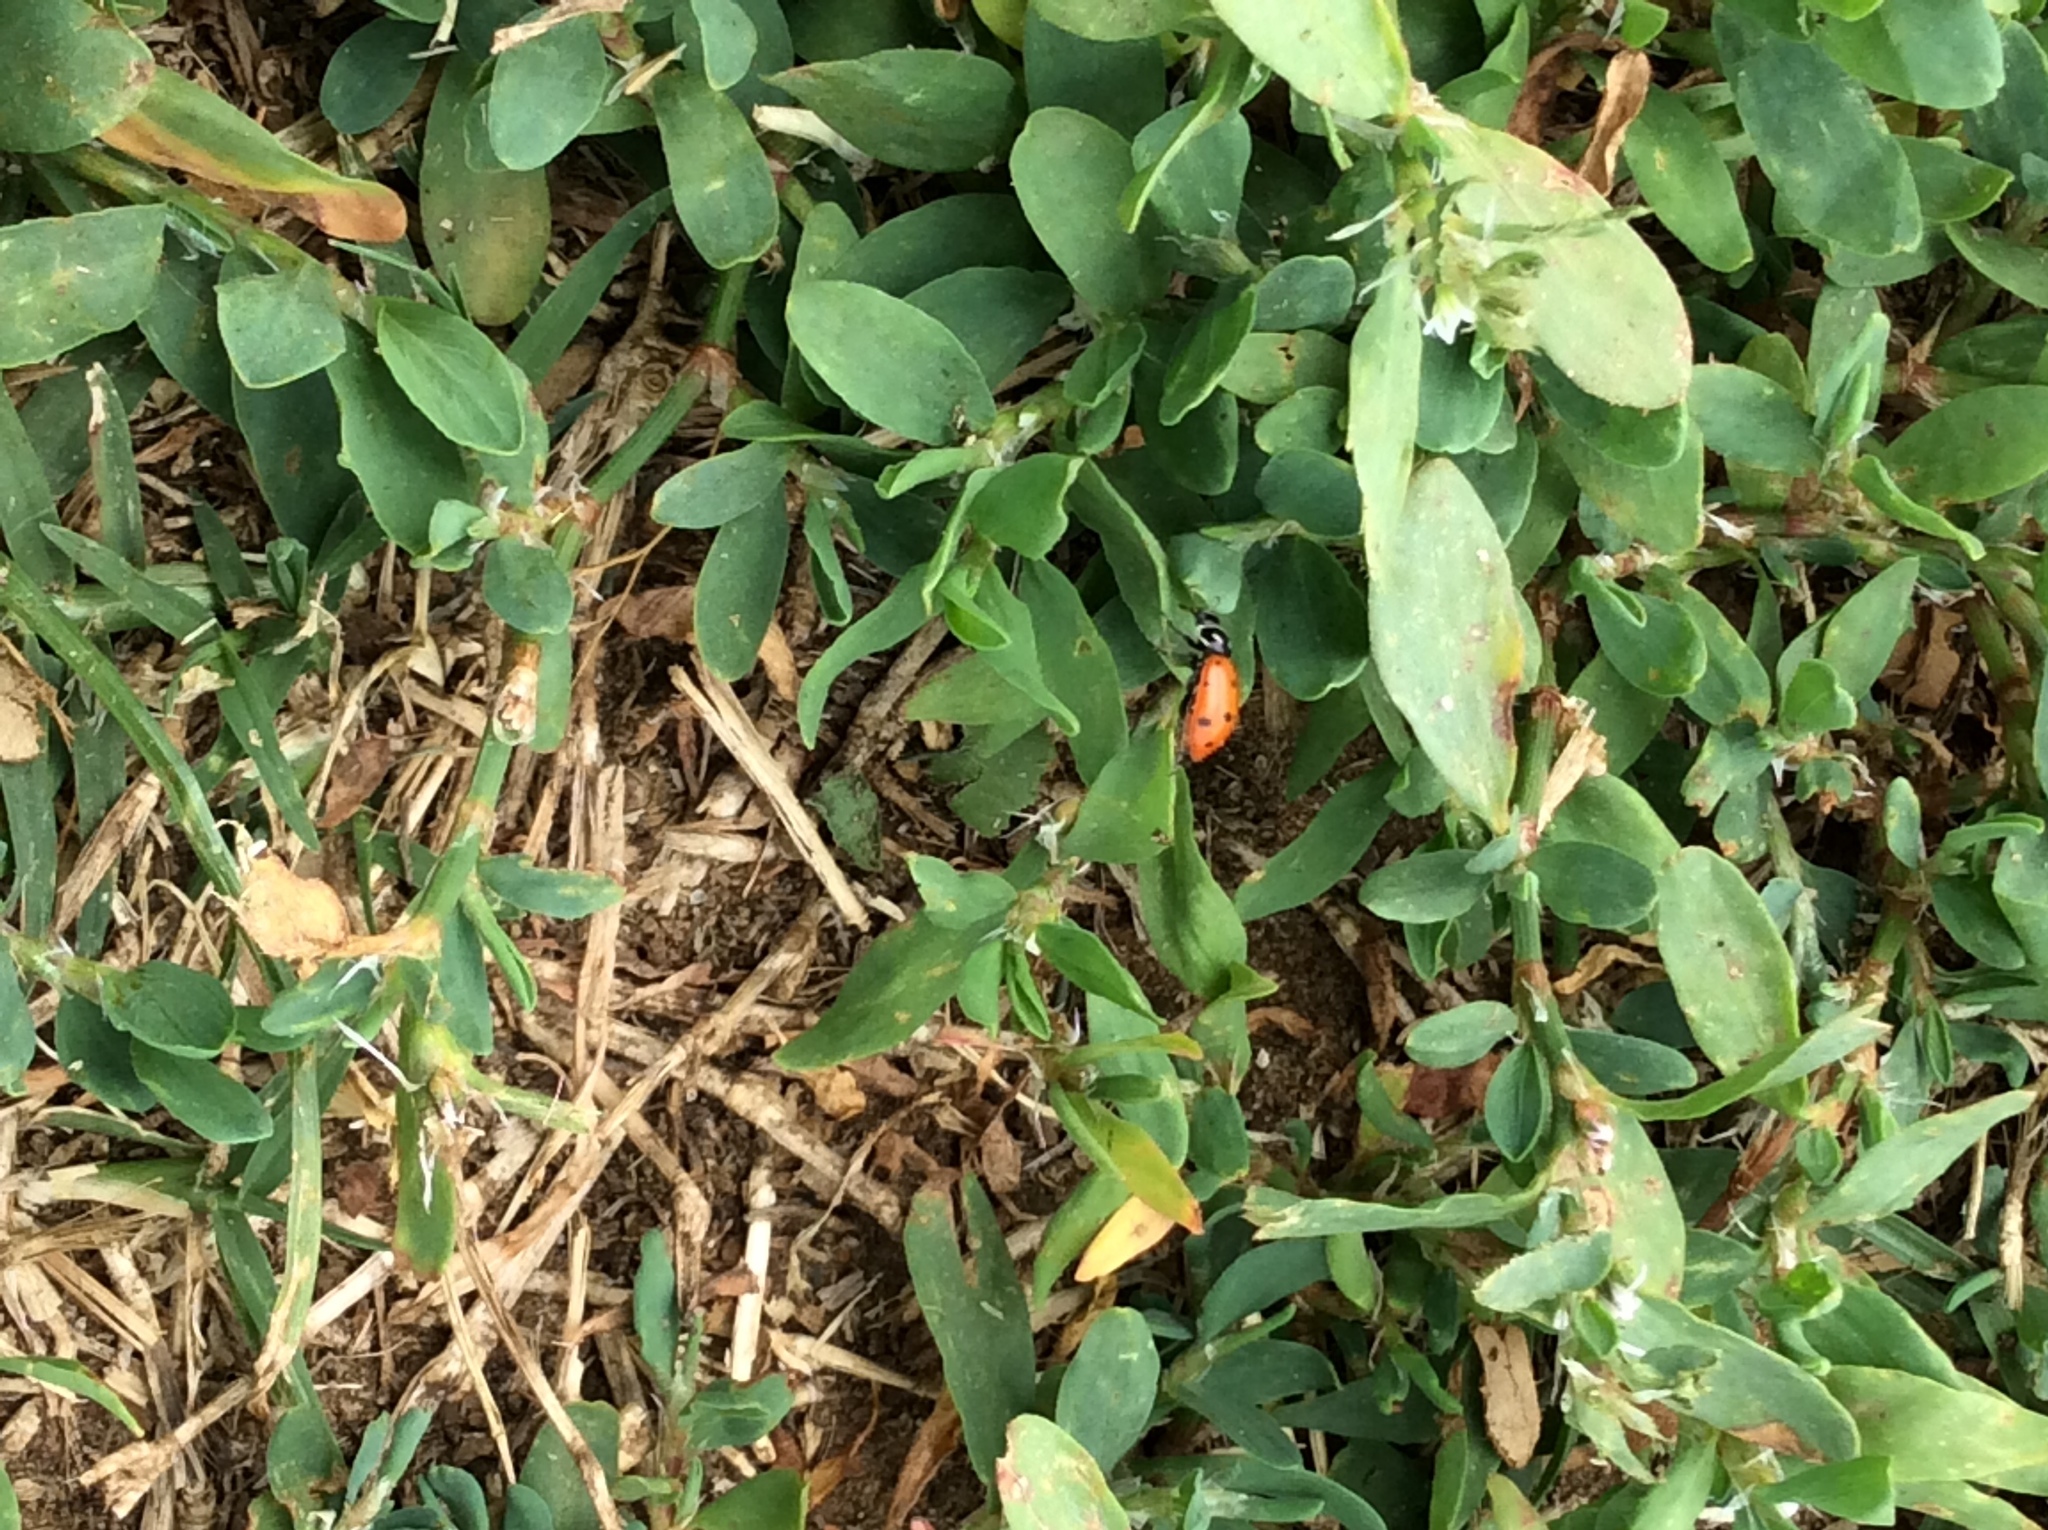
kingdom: Animalia
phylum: Arthropoda
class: Insecta
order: Coleoptera
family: Coccinellidae
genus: Hippodamia
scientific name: Hippodamia convergens
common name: Convergent lady beetle
